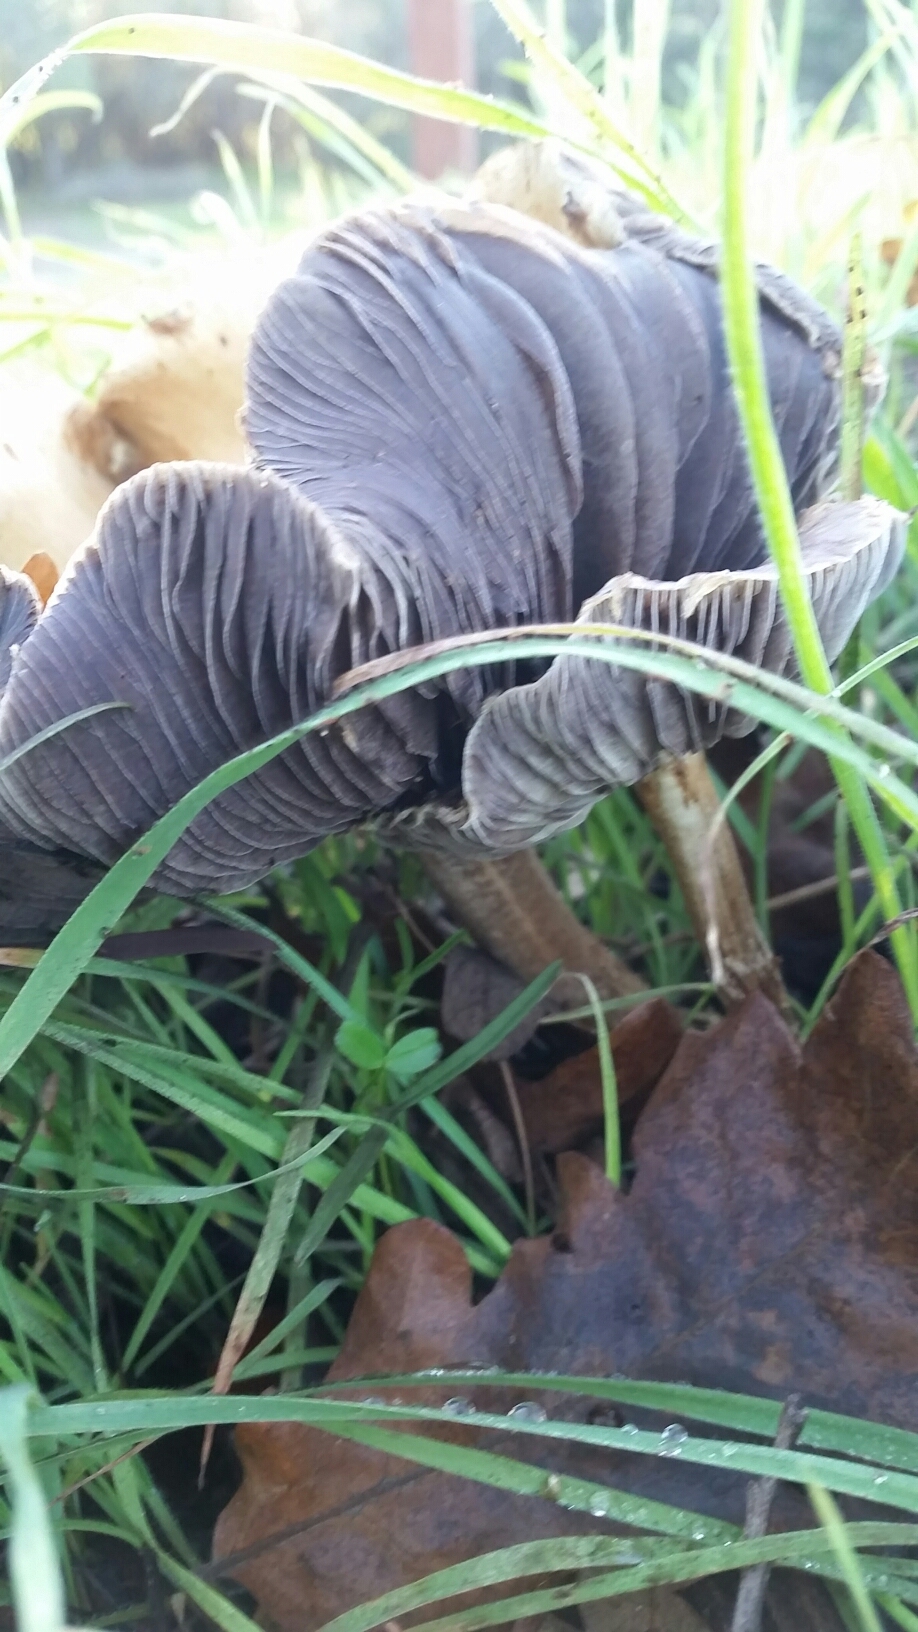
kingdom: Fungi
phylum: Basidiomycota
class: Agaricomycetes
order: Agaricales
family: Strophariaceae
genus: Leratiomyces
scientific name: Leratiomyces percevalii
